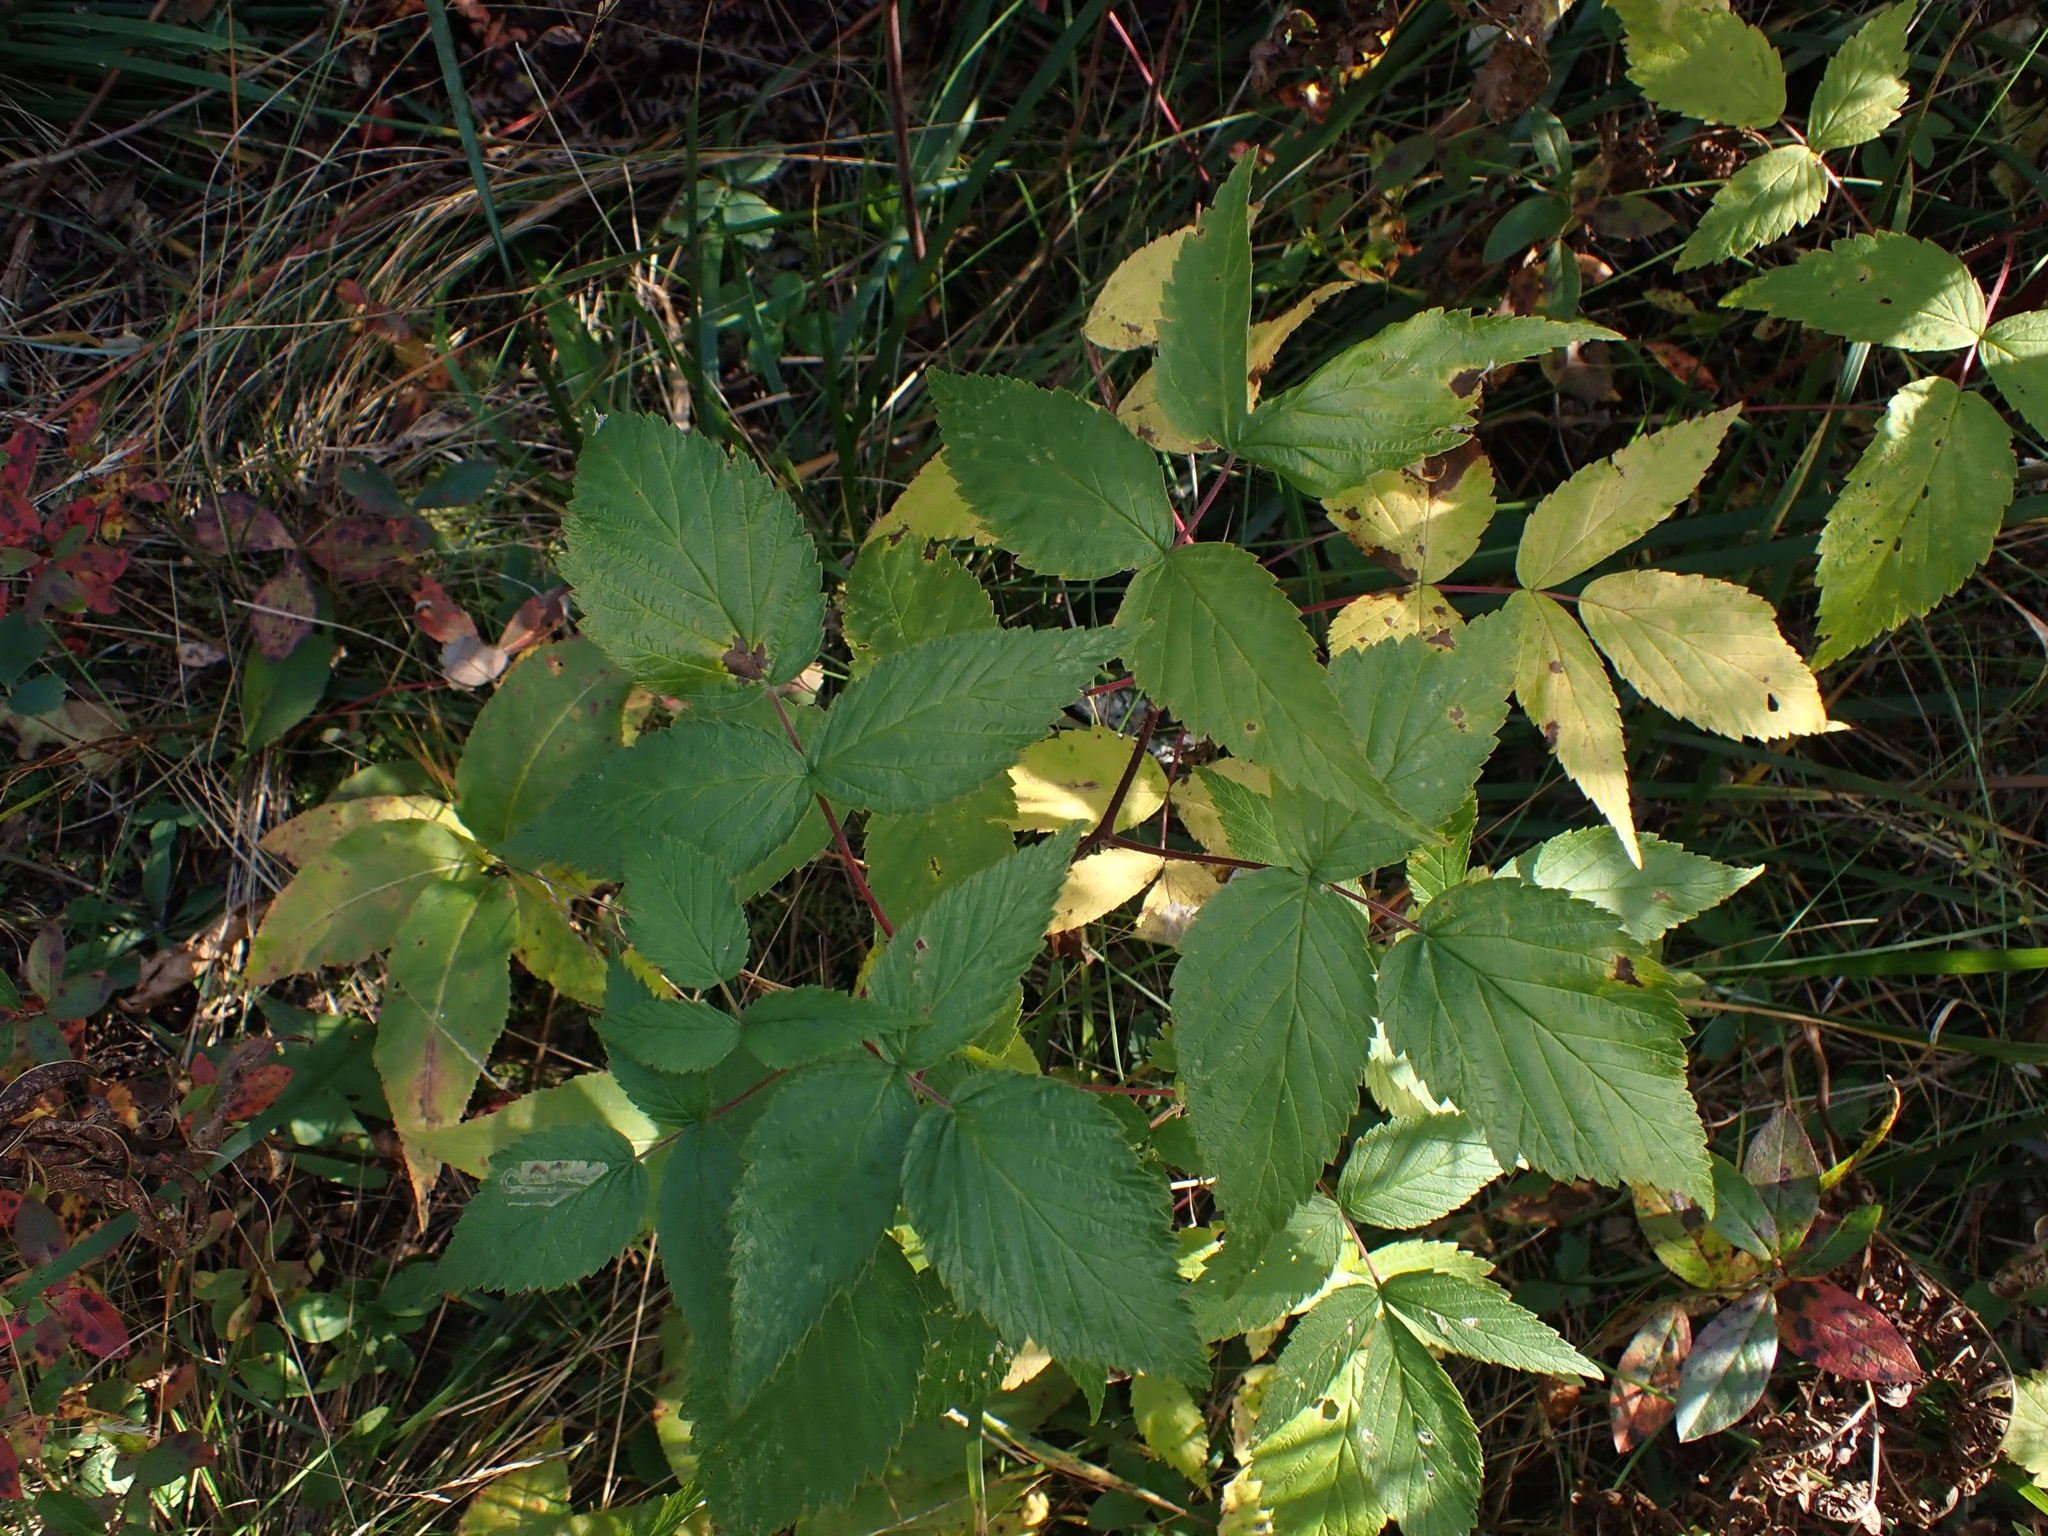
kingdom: Plantae
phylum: Tracheophyta
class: Magnoliopsida
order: Rosales
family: Rosaceae
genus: Rubus
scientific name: Rubus idaeus
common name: Raspberry
